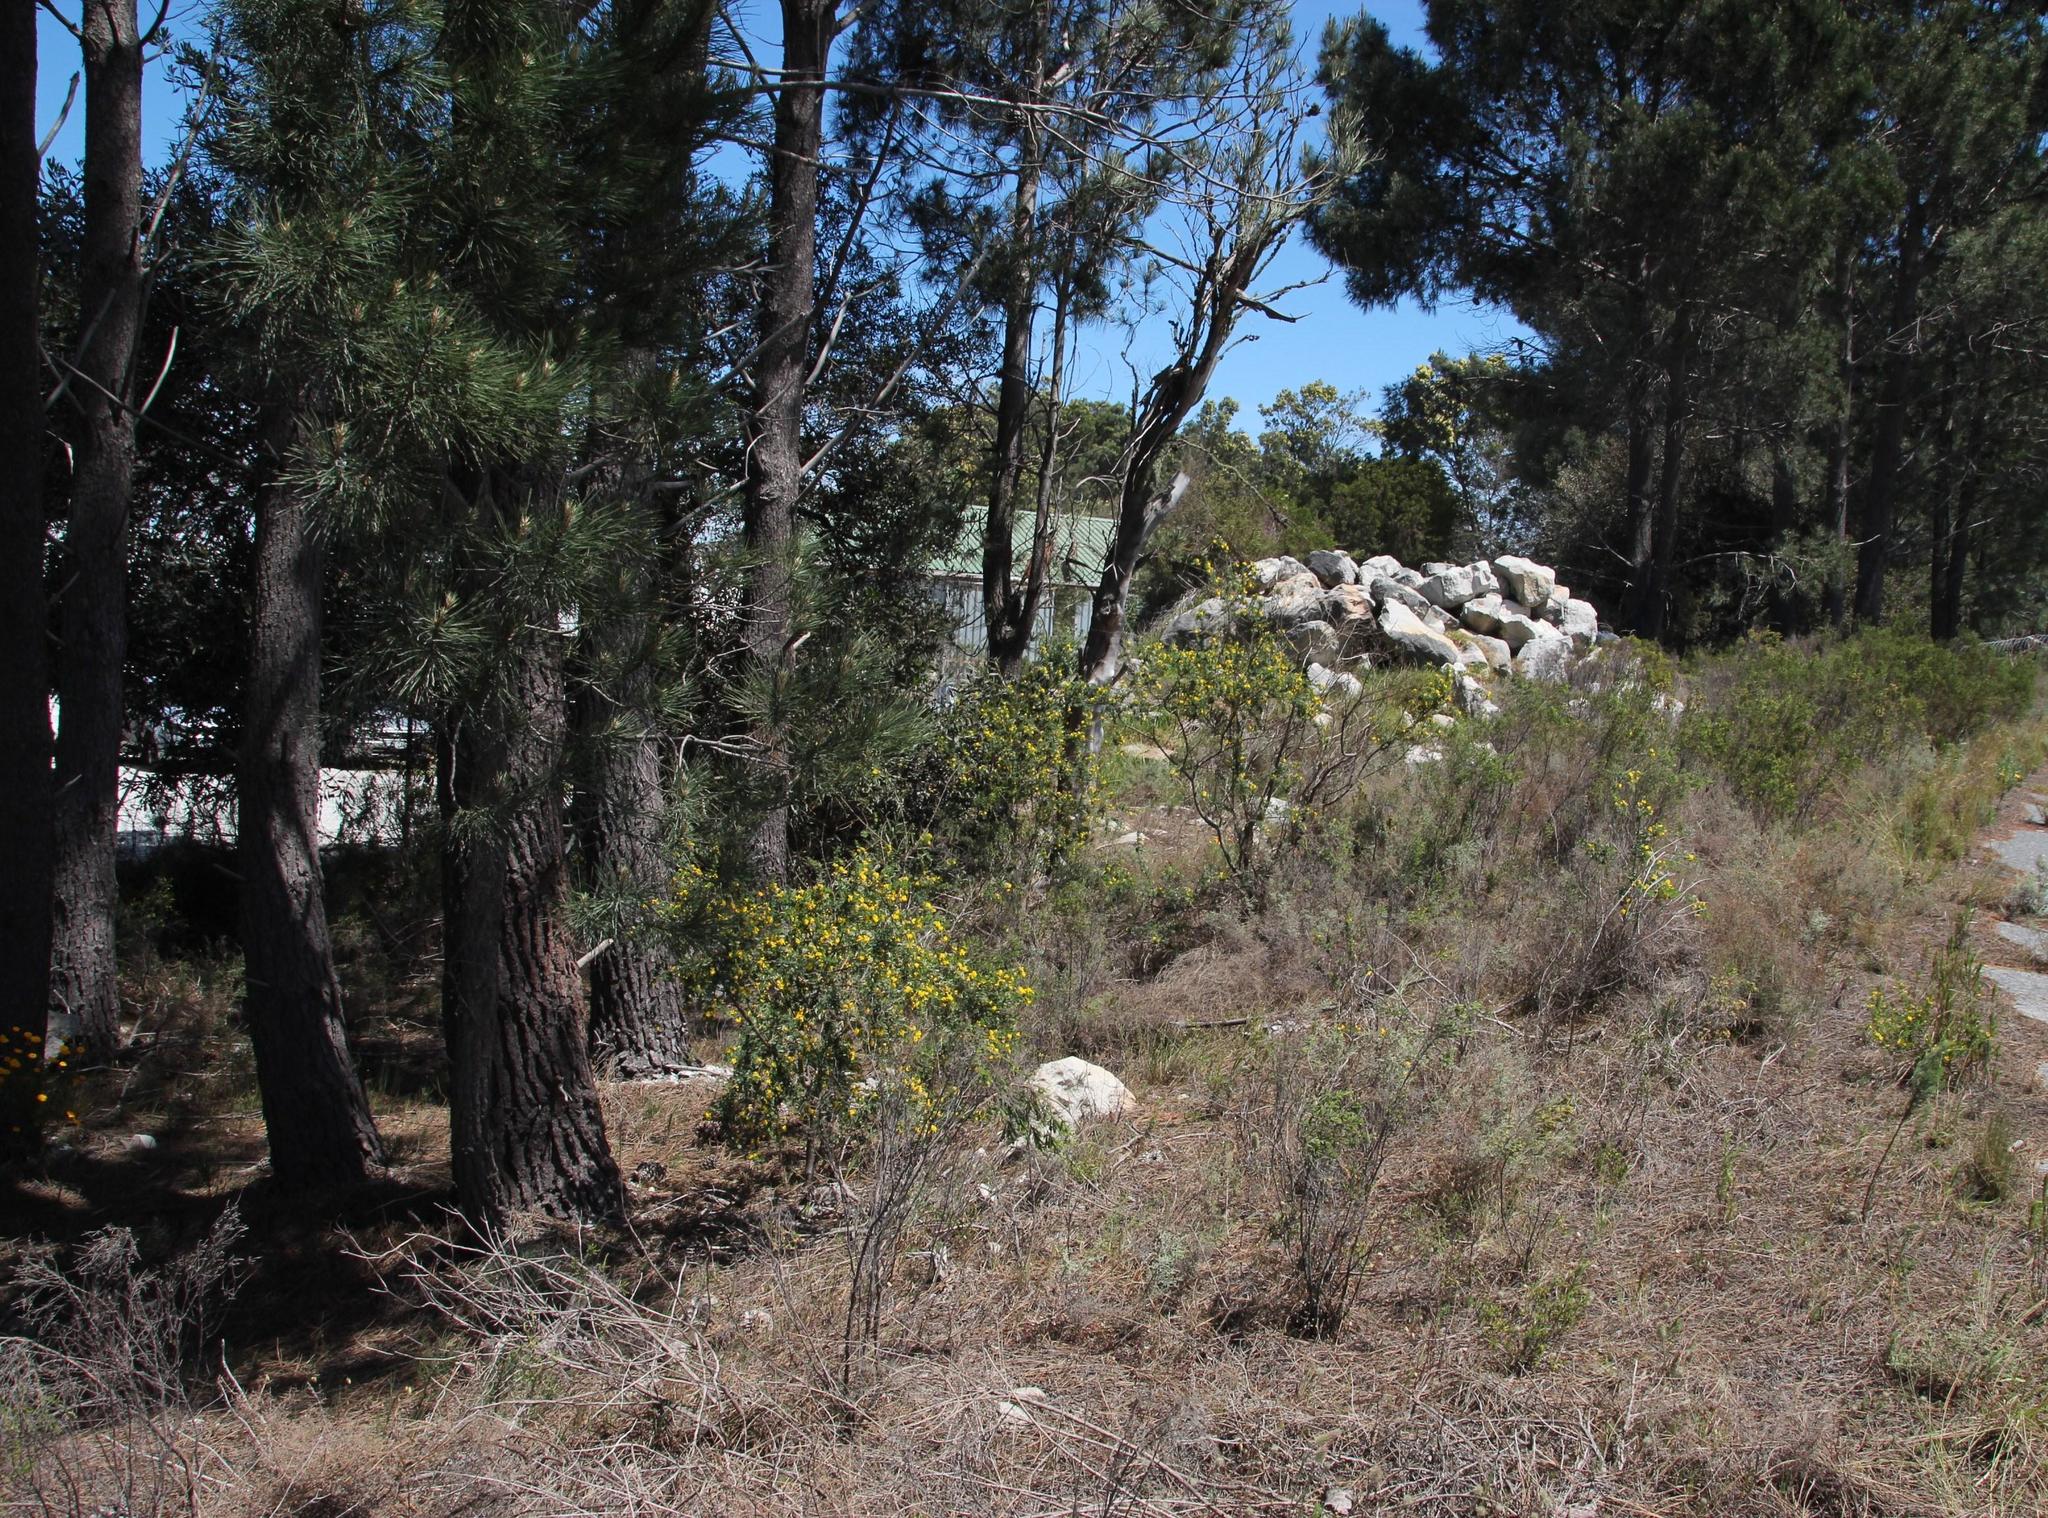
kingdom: Plantae
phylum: Tracheophyta
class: Magnoliopsida
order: Fabales
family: Fabaceae
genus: Genista
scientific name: Genista monspessulana
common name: Montpellier broom
